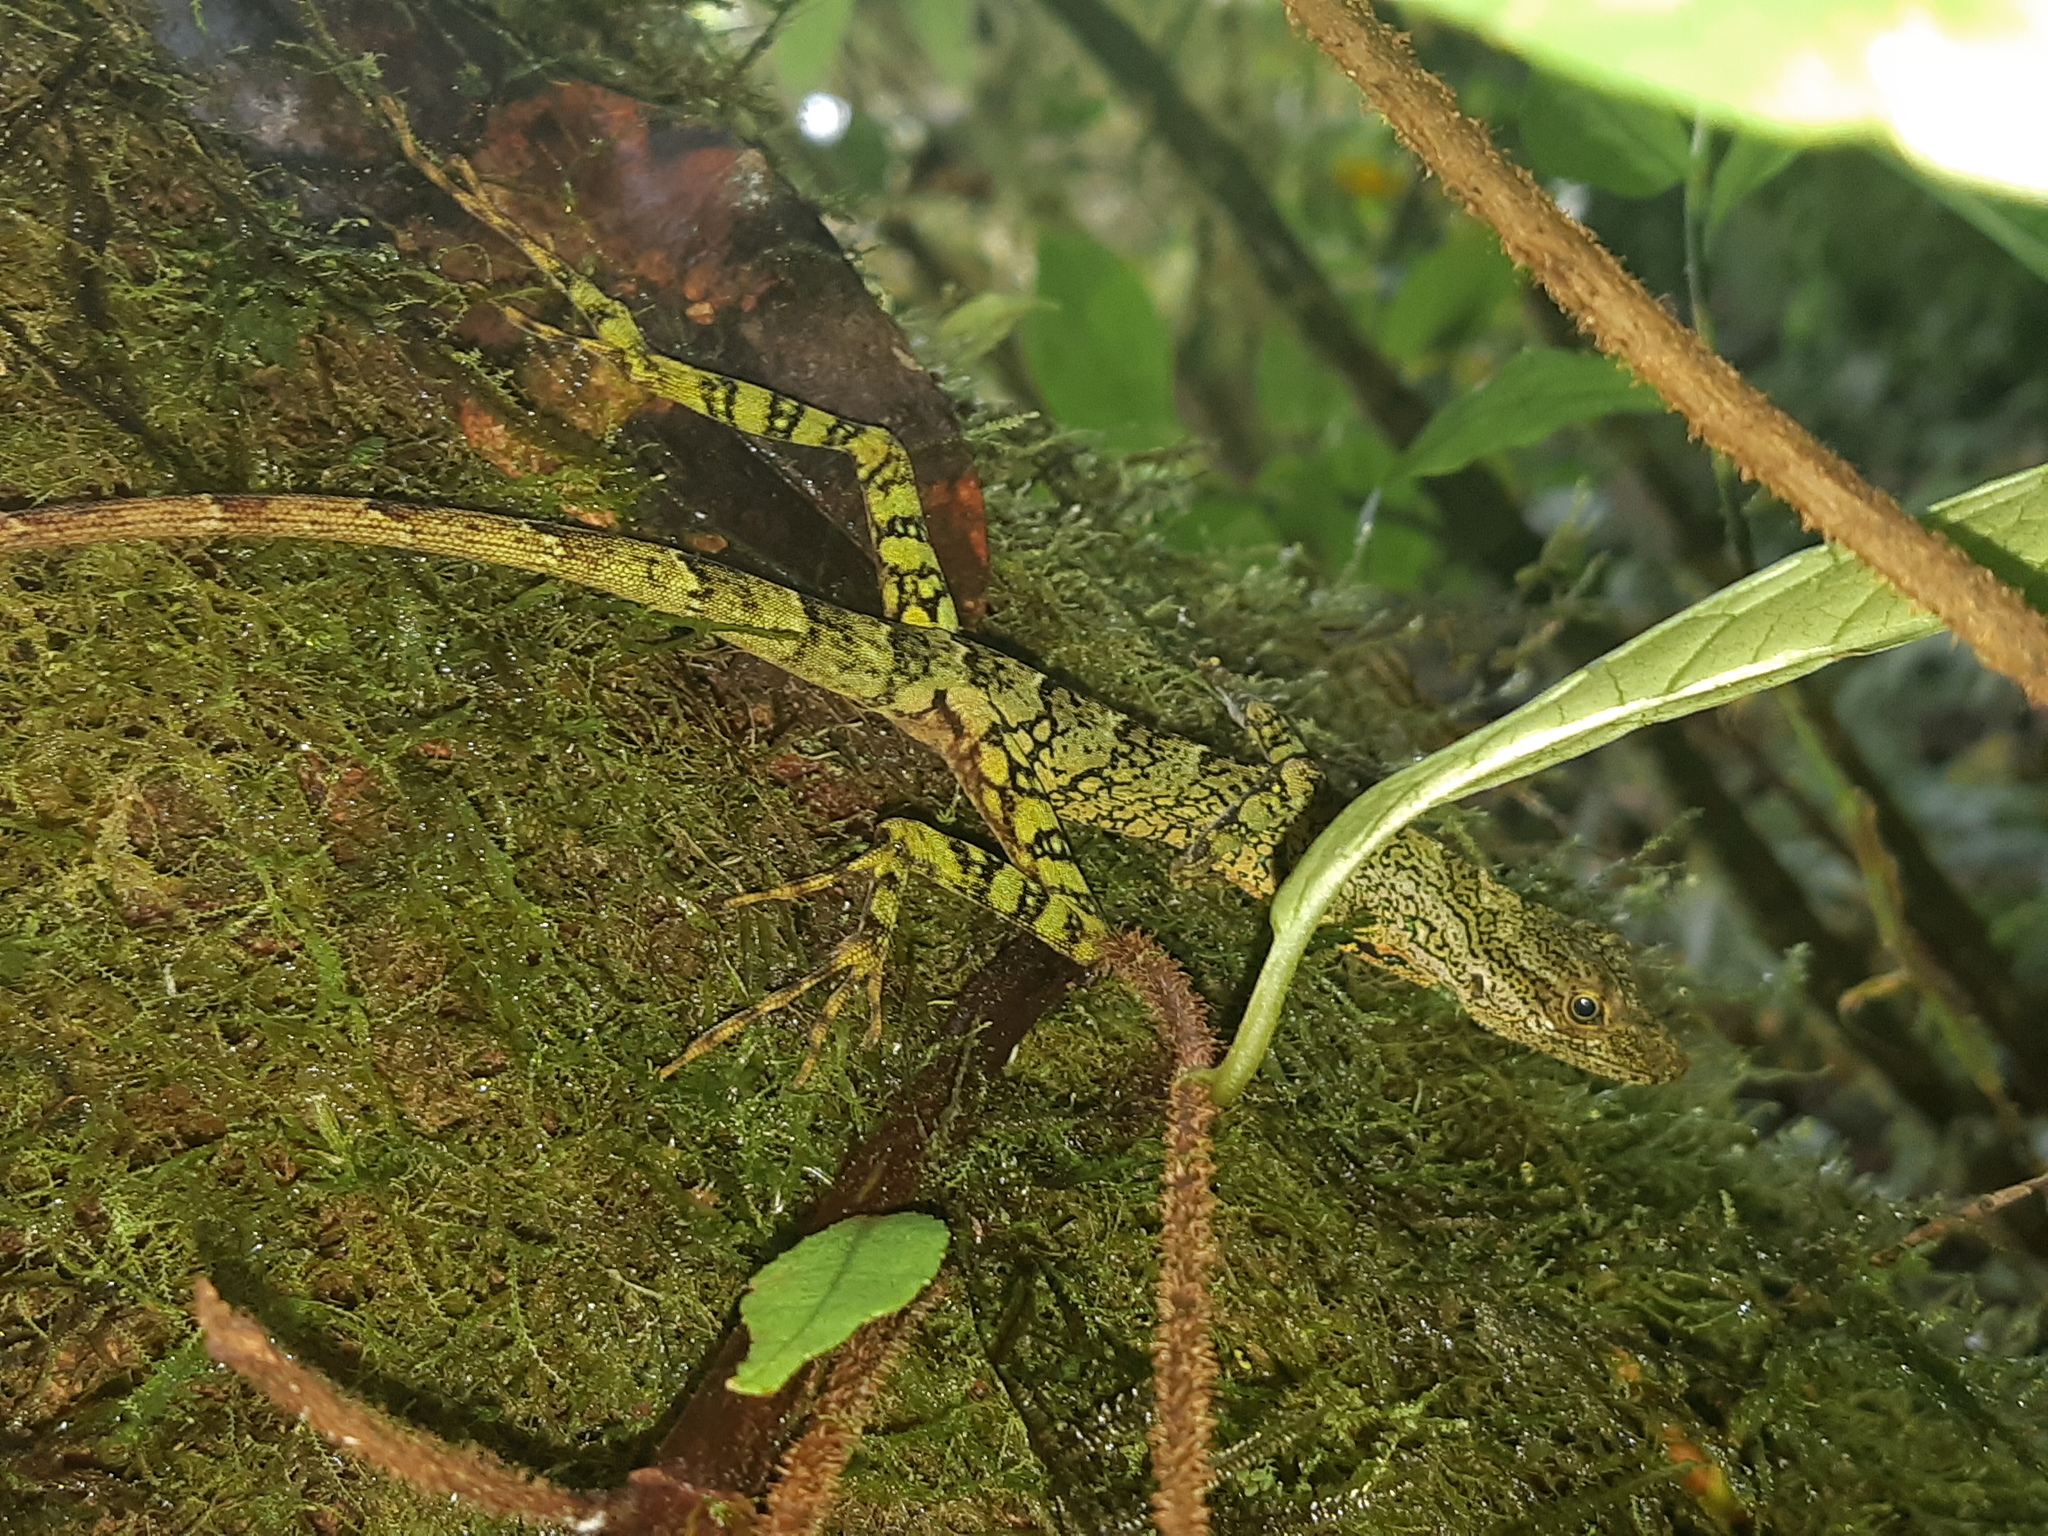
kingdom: Animalia
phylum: Chordata
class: Squamata
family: Dactyloidae
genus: Anolis
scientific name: Anolis aequatorialis
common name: Equatorial anole
